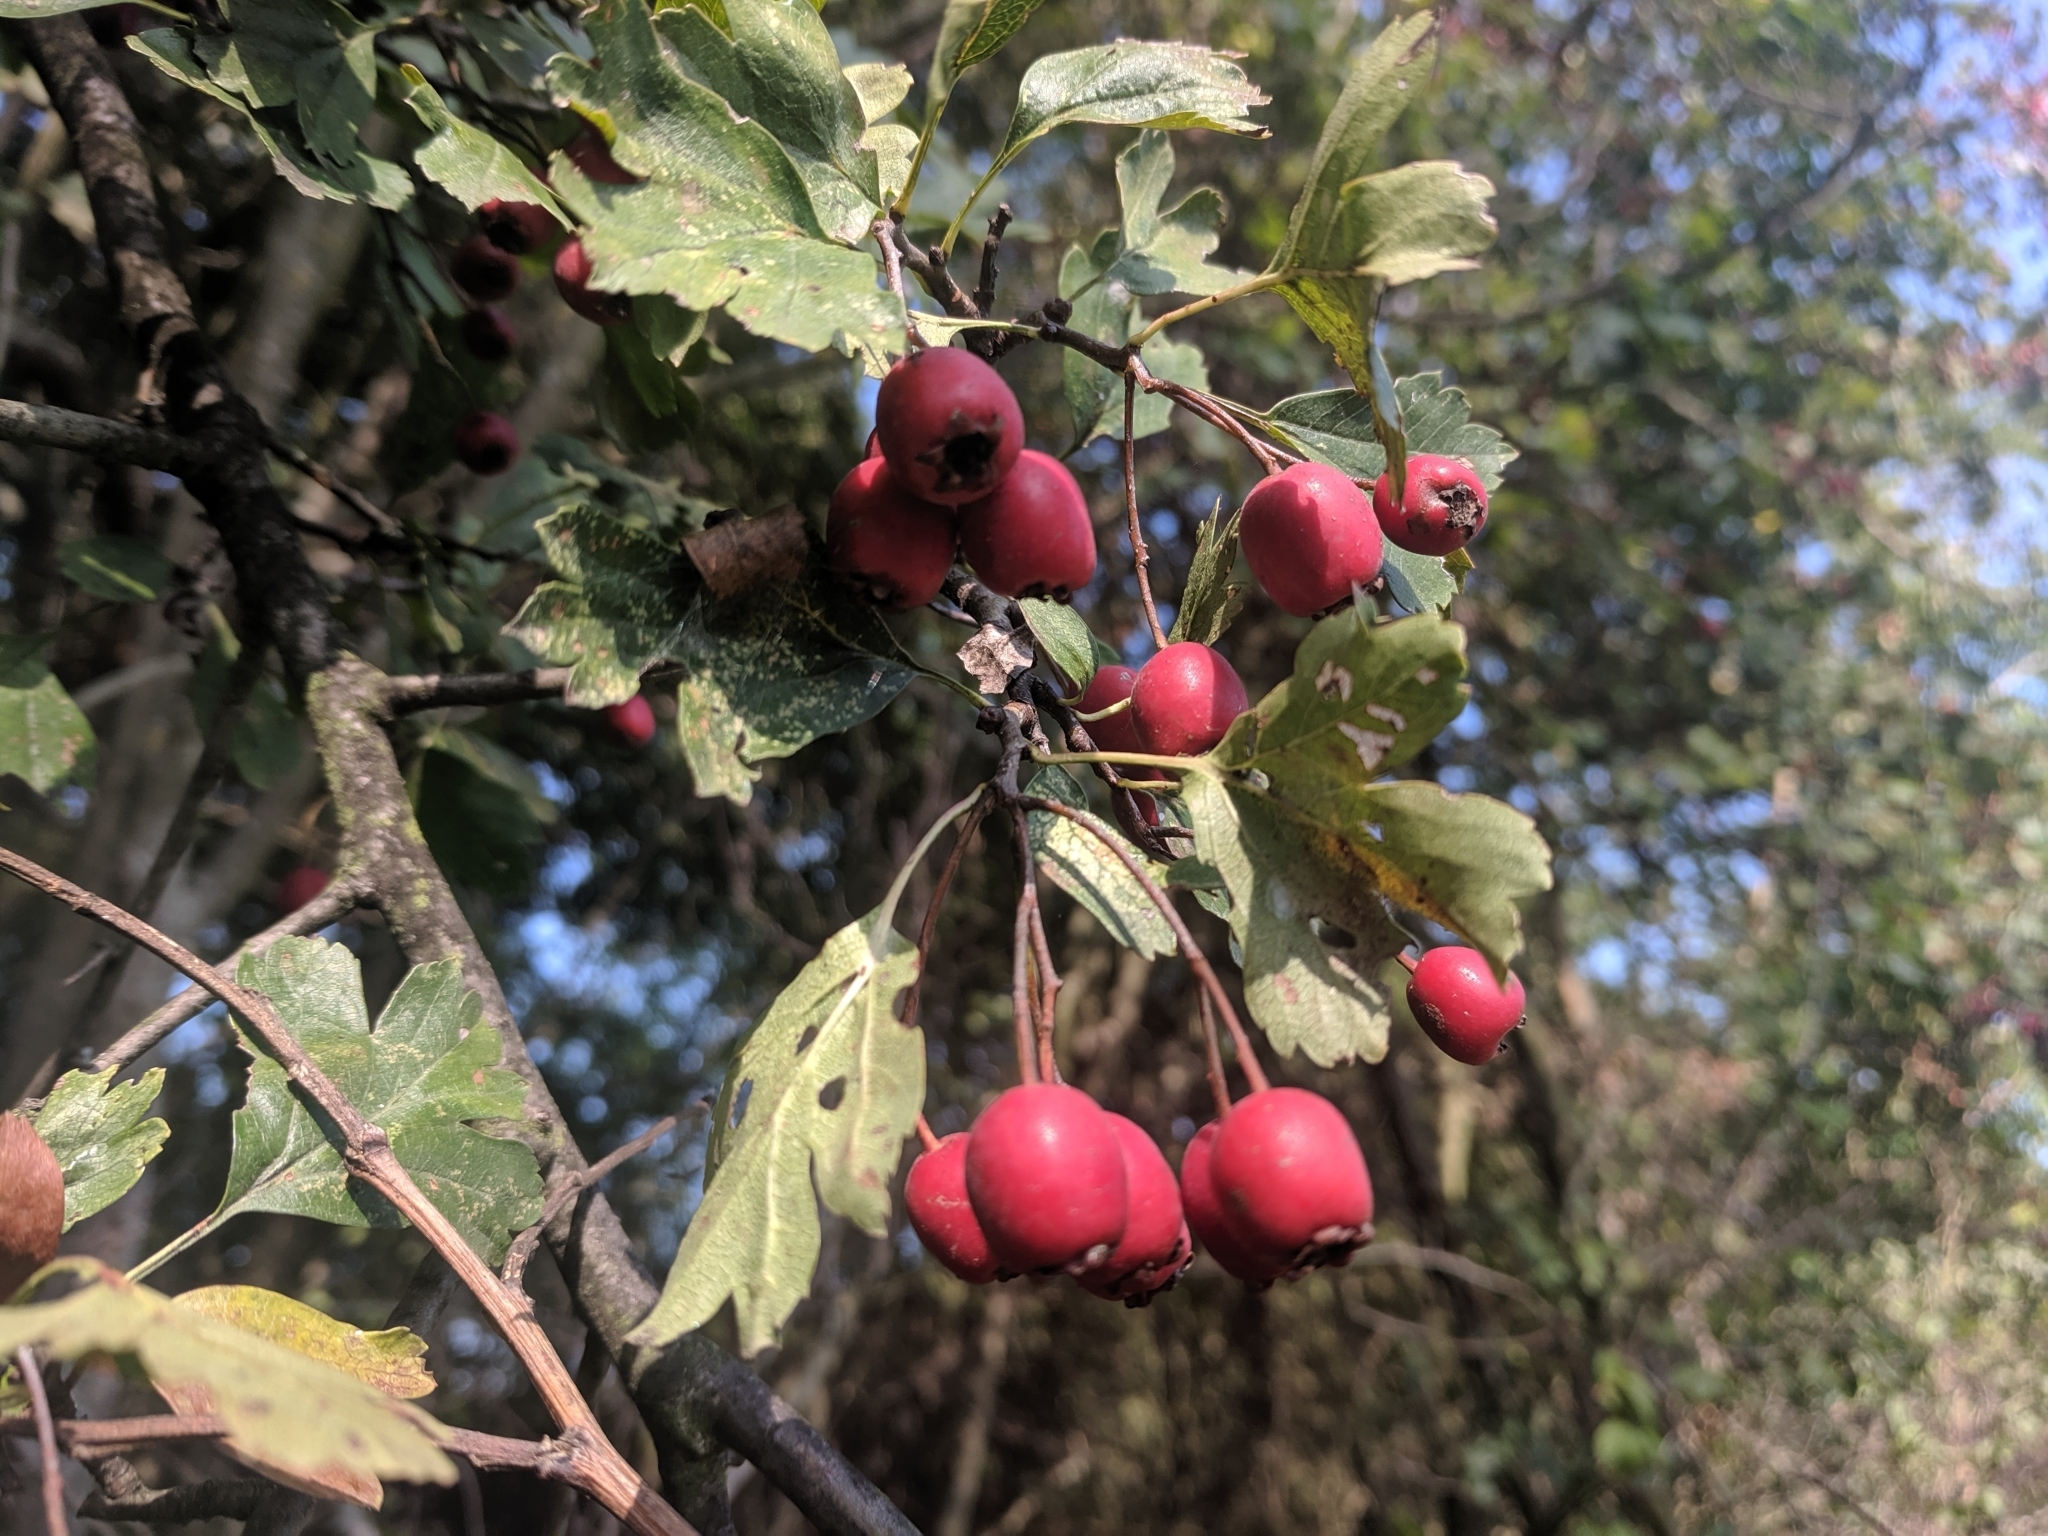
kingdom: Plantae
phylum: Tracheophyta
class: Magnoliopsida
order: Rosales
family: Rosaceae
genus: Crataegus
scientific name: Crataegus monogyna
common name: Hawthorn
